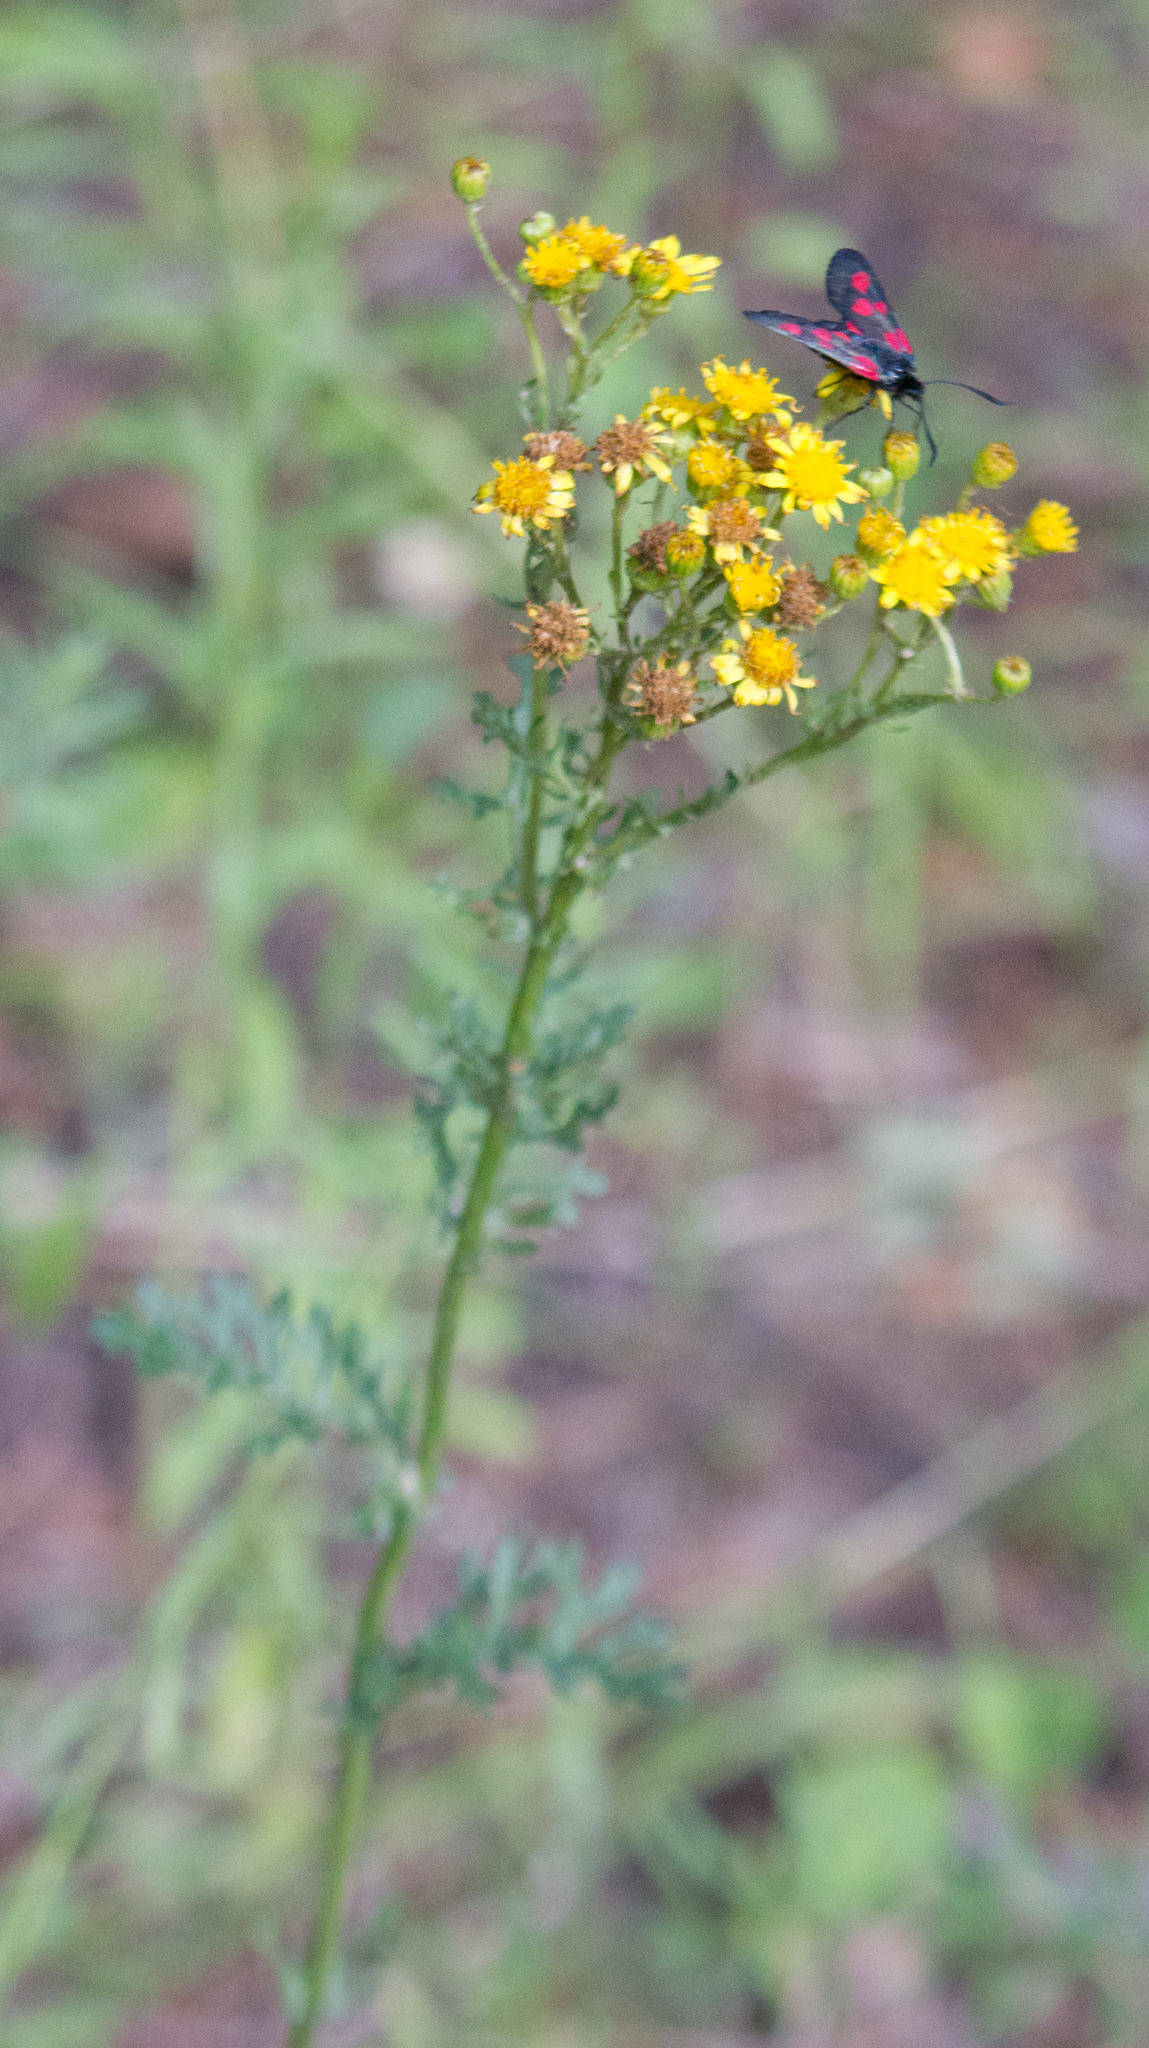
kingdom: Plantae
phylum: Tracheophyta
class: Magnoliopsida
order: Asterales
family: Asteraceae
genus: Jacobaea
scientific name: Jacobaea vulgaris
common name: Stinking willie
